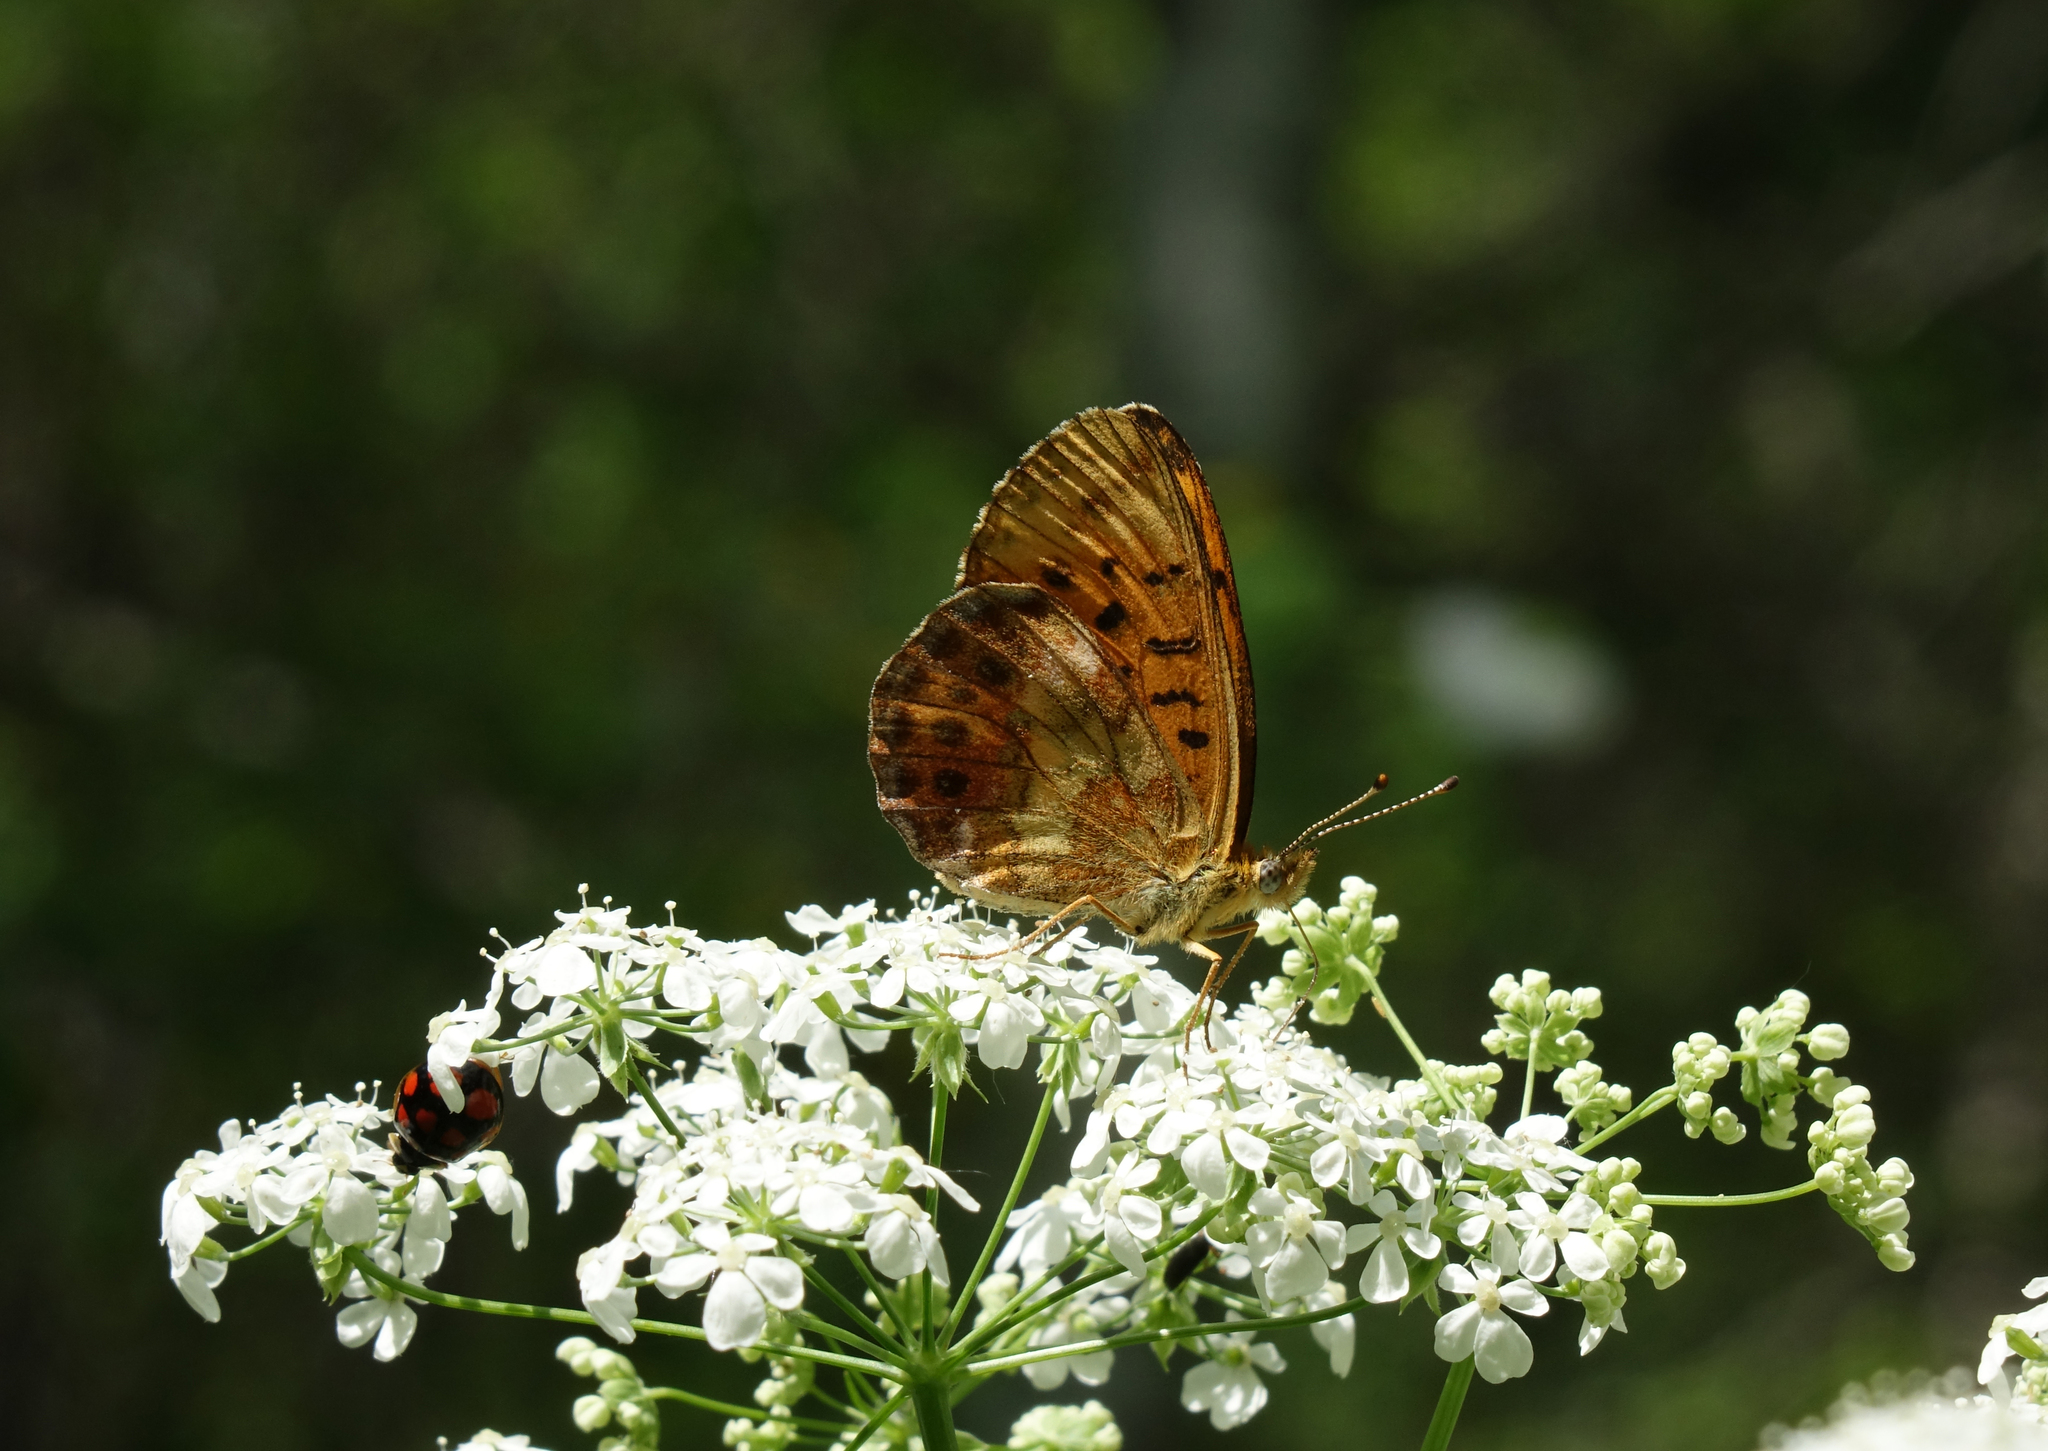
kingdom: Plantae
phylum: Tracheophyta
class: Magnoliopsida
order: Apiales
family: Apiaceae
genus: Anthriscus
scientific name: Anthriscus sylvestris
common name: Cow parsley
